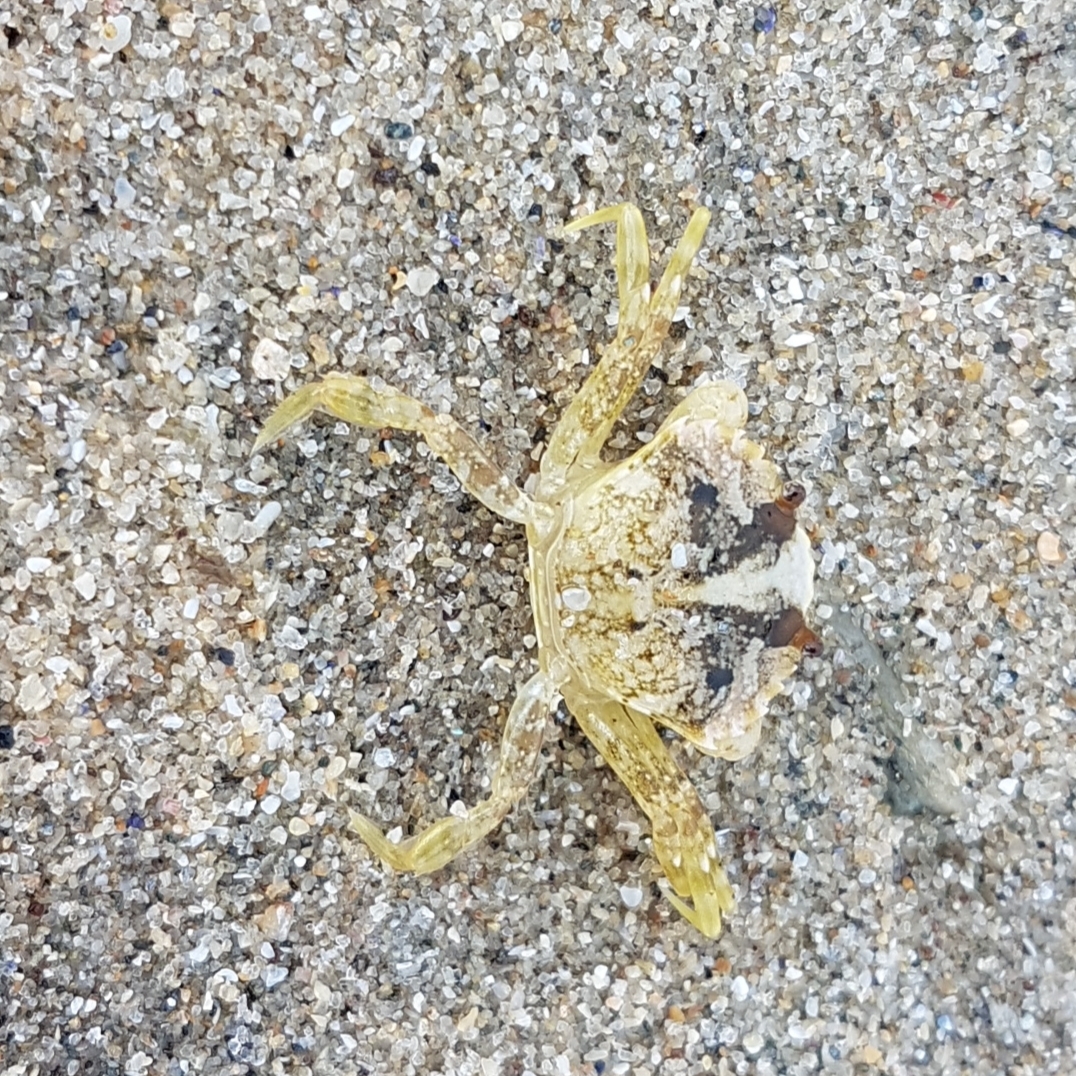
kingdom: Animalia
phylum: Arthropoda
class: Malacostraca
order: Decapoda
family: Carcinidae
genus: Carcinus
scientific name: Carcinus maenas
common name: European green crab
